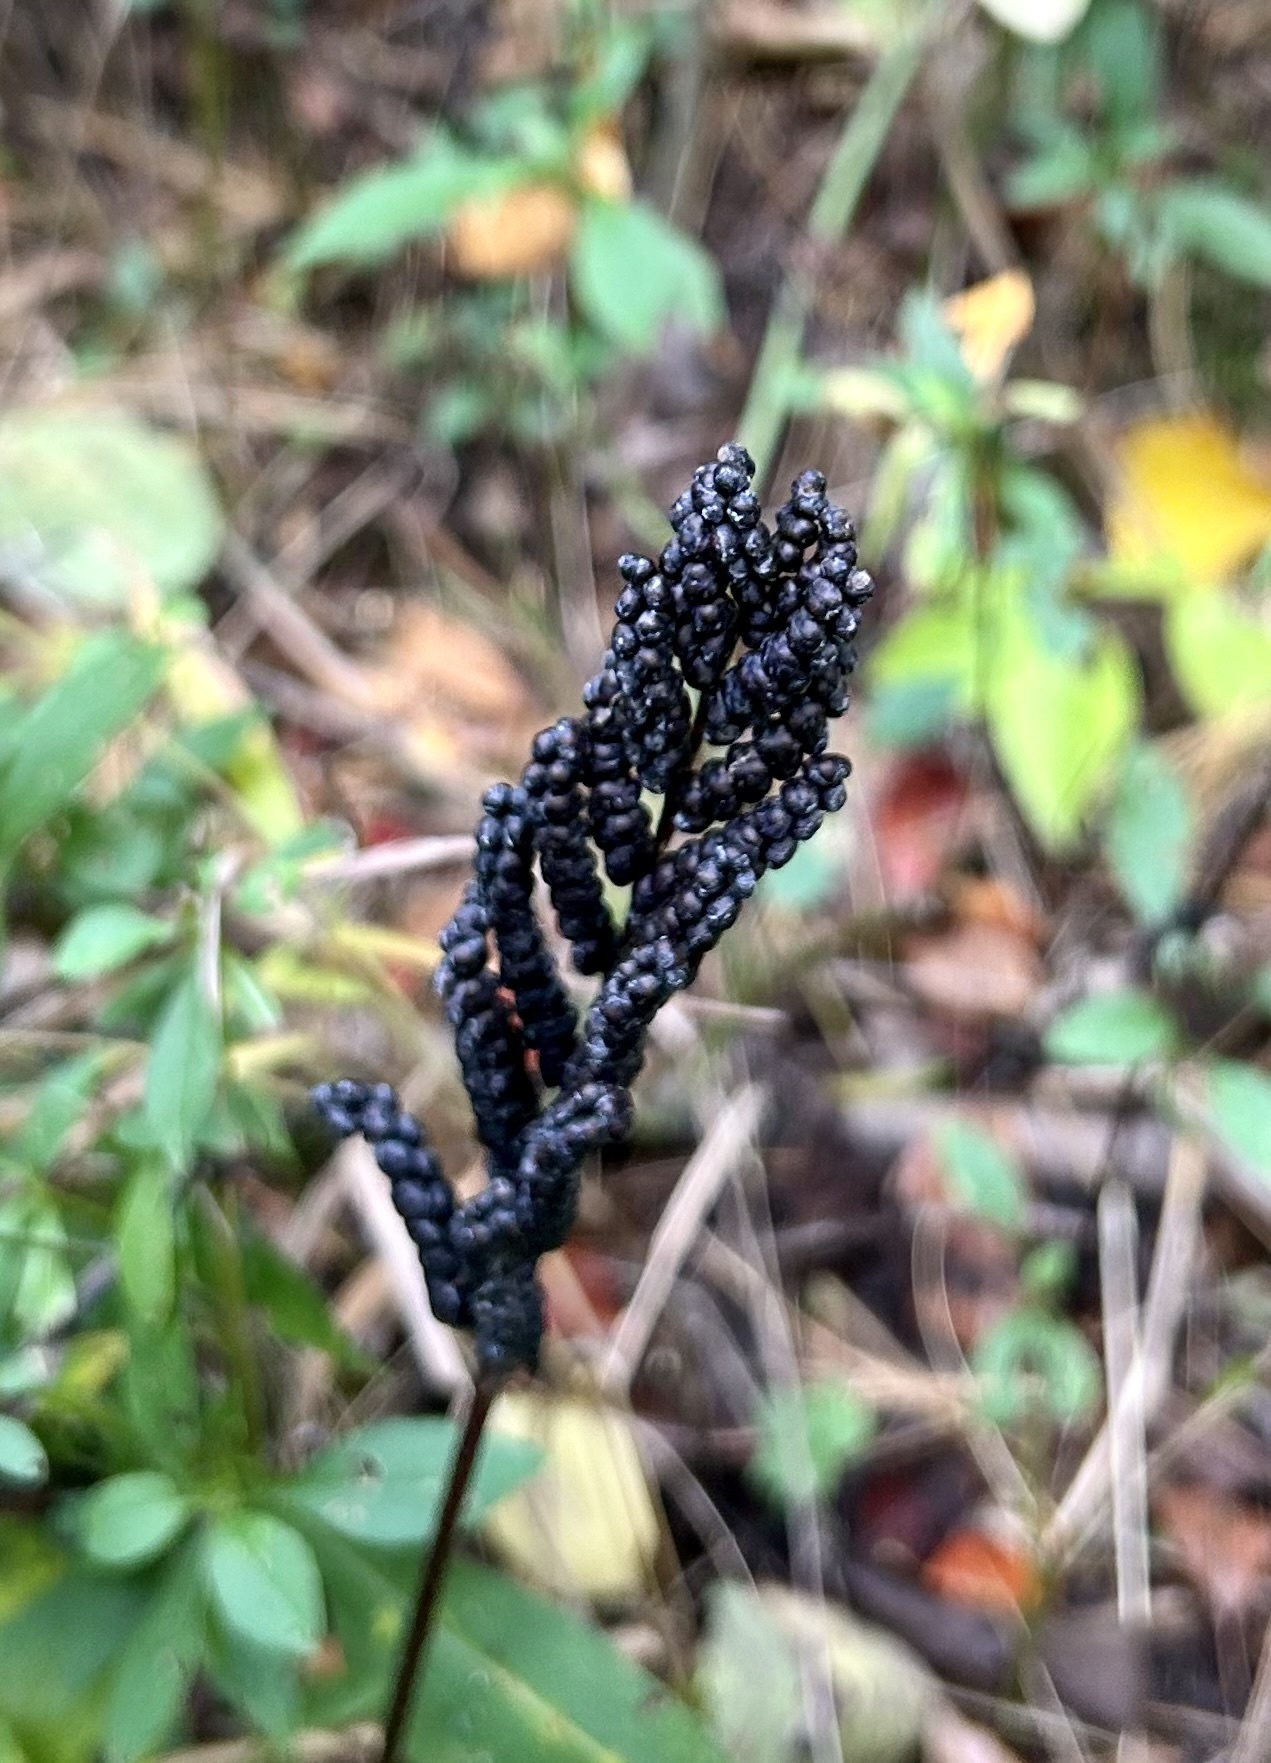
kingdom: Plantae
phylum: Tracheophyta
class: Polypodiopsida
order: Polypodiales
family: Onocleaceae
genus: Onoclea
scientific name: Onoclea sensibilis
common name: Sensitive fern
